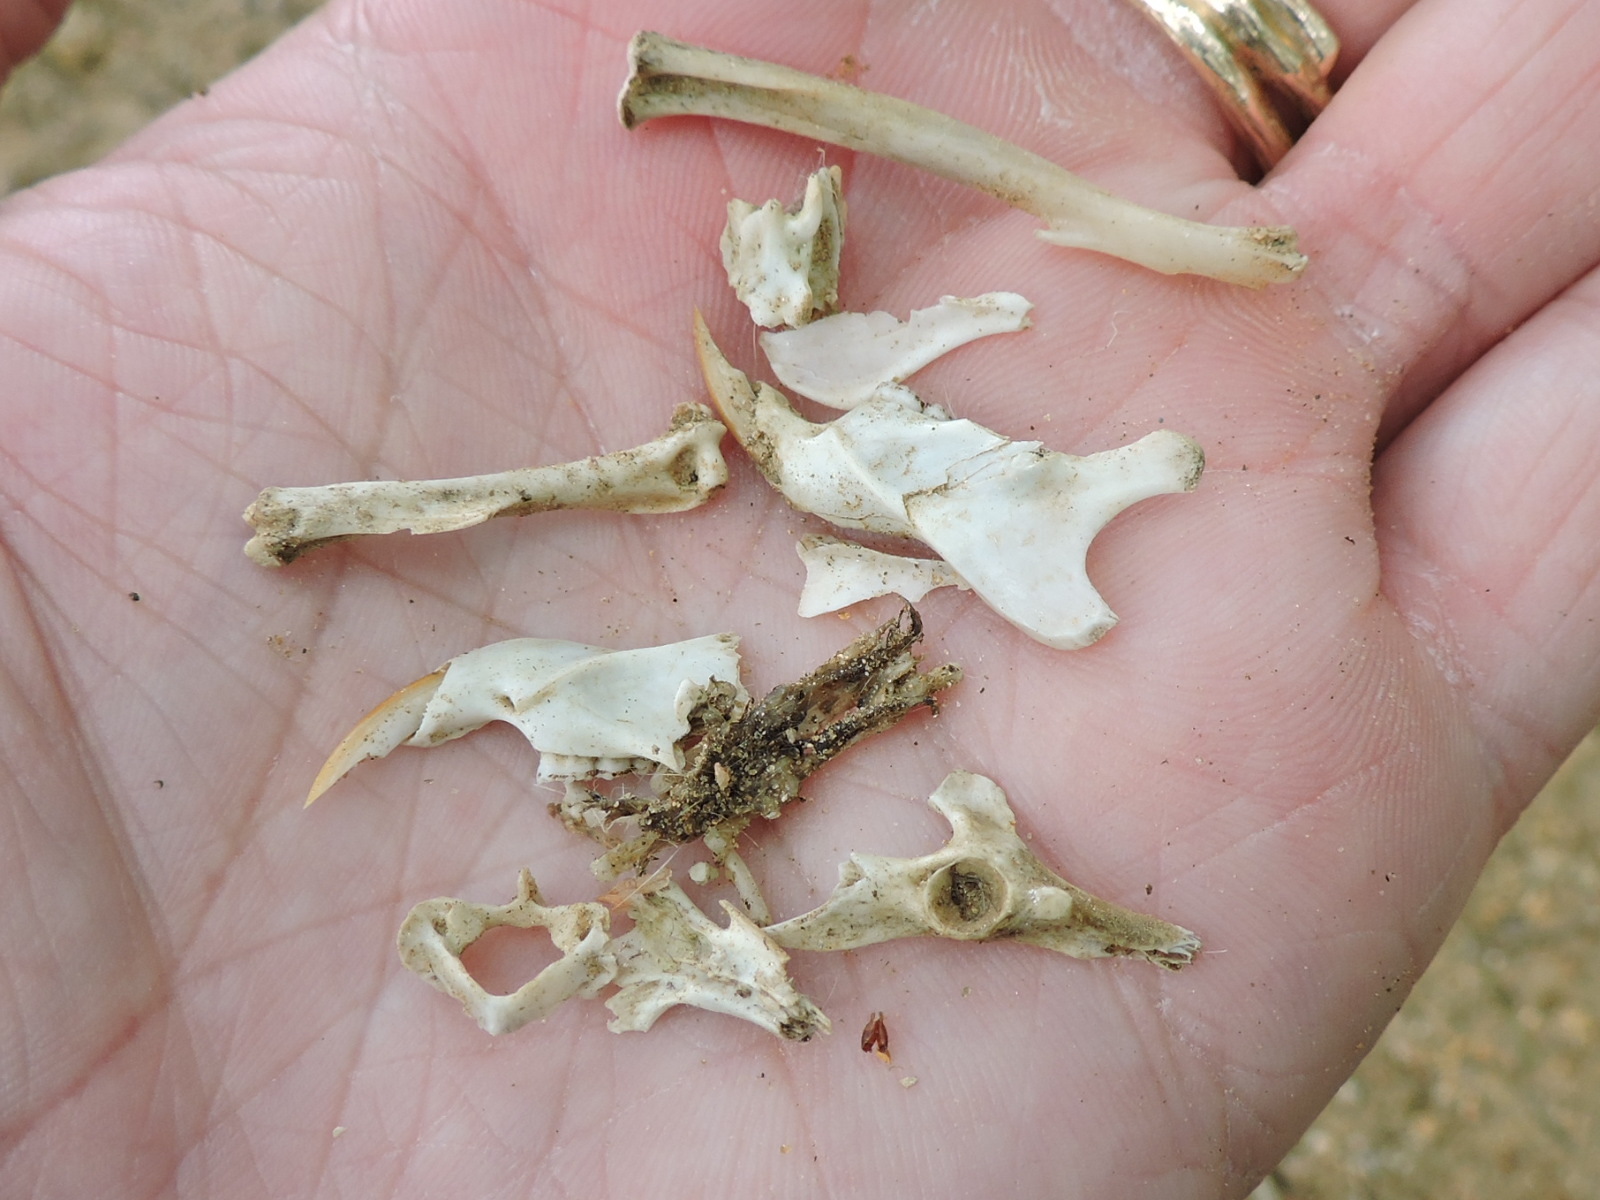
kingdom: Animalia
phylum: Chordata
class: Mammalia
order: Rodentia
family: Cricetidae
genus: Sigmodon
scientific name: Sigmodon hispidus
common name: Hispid cotton rat
